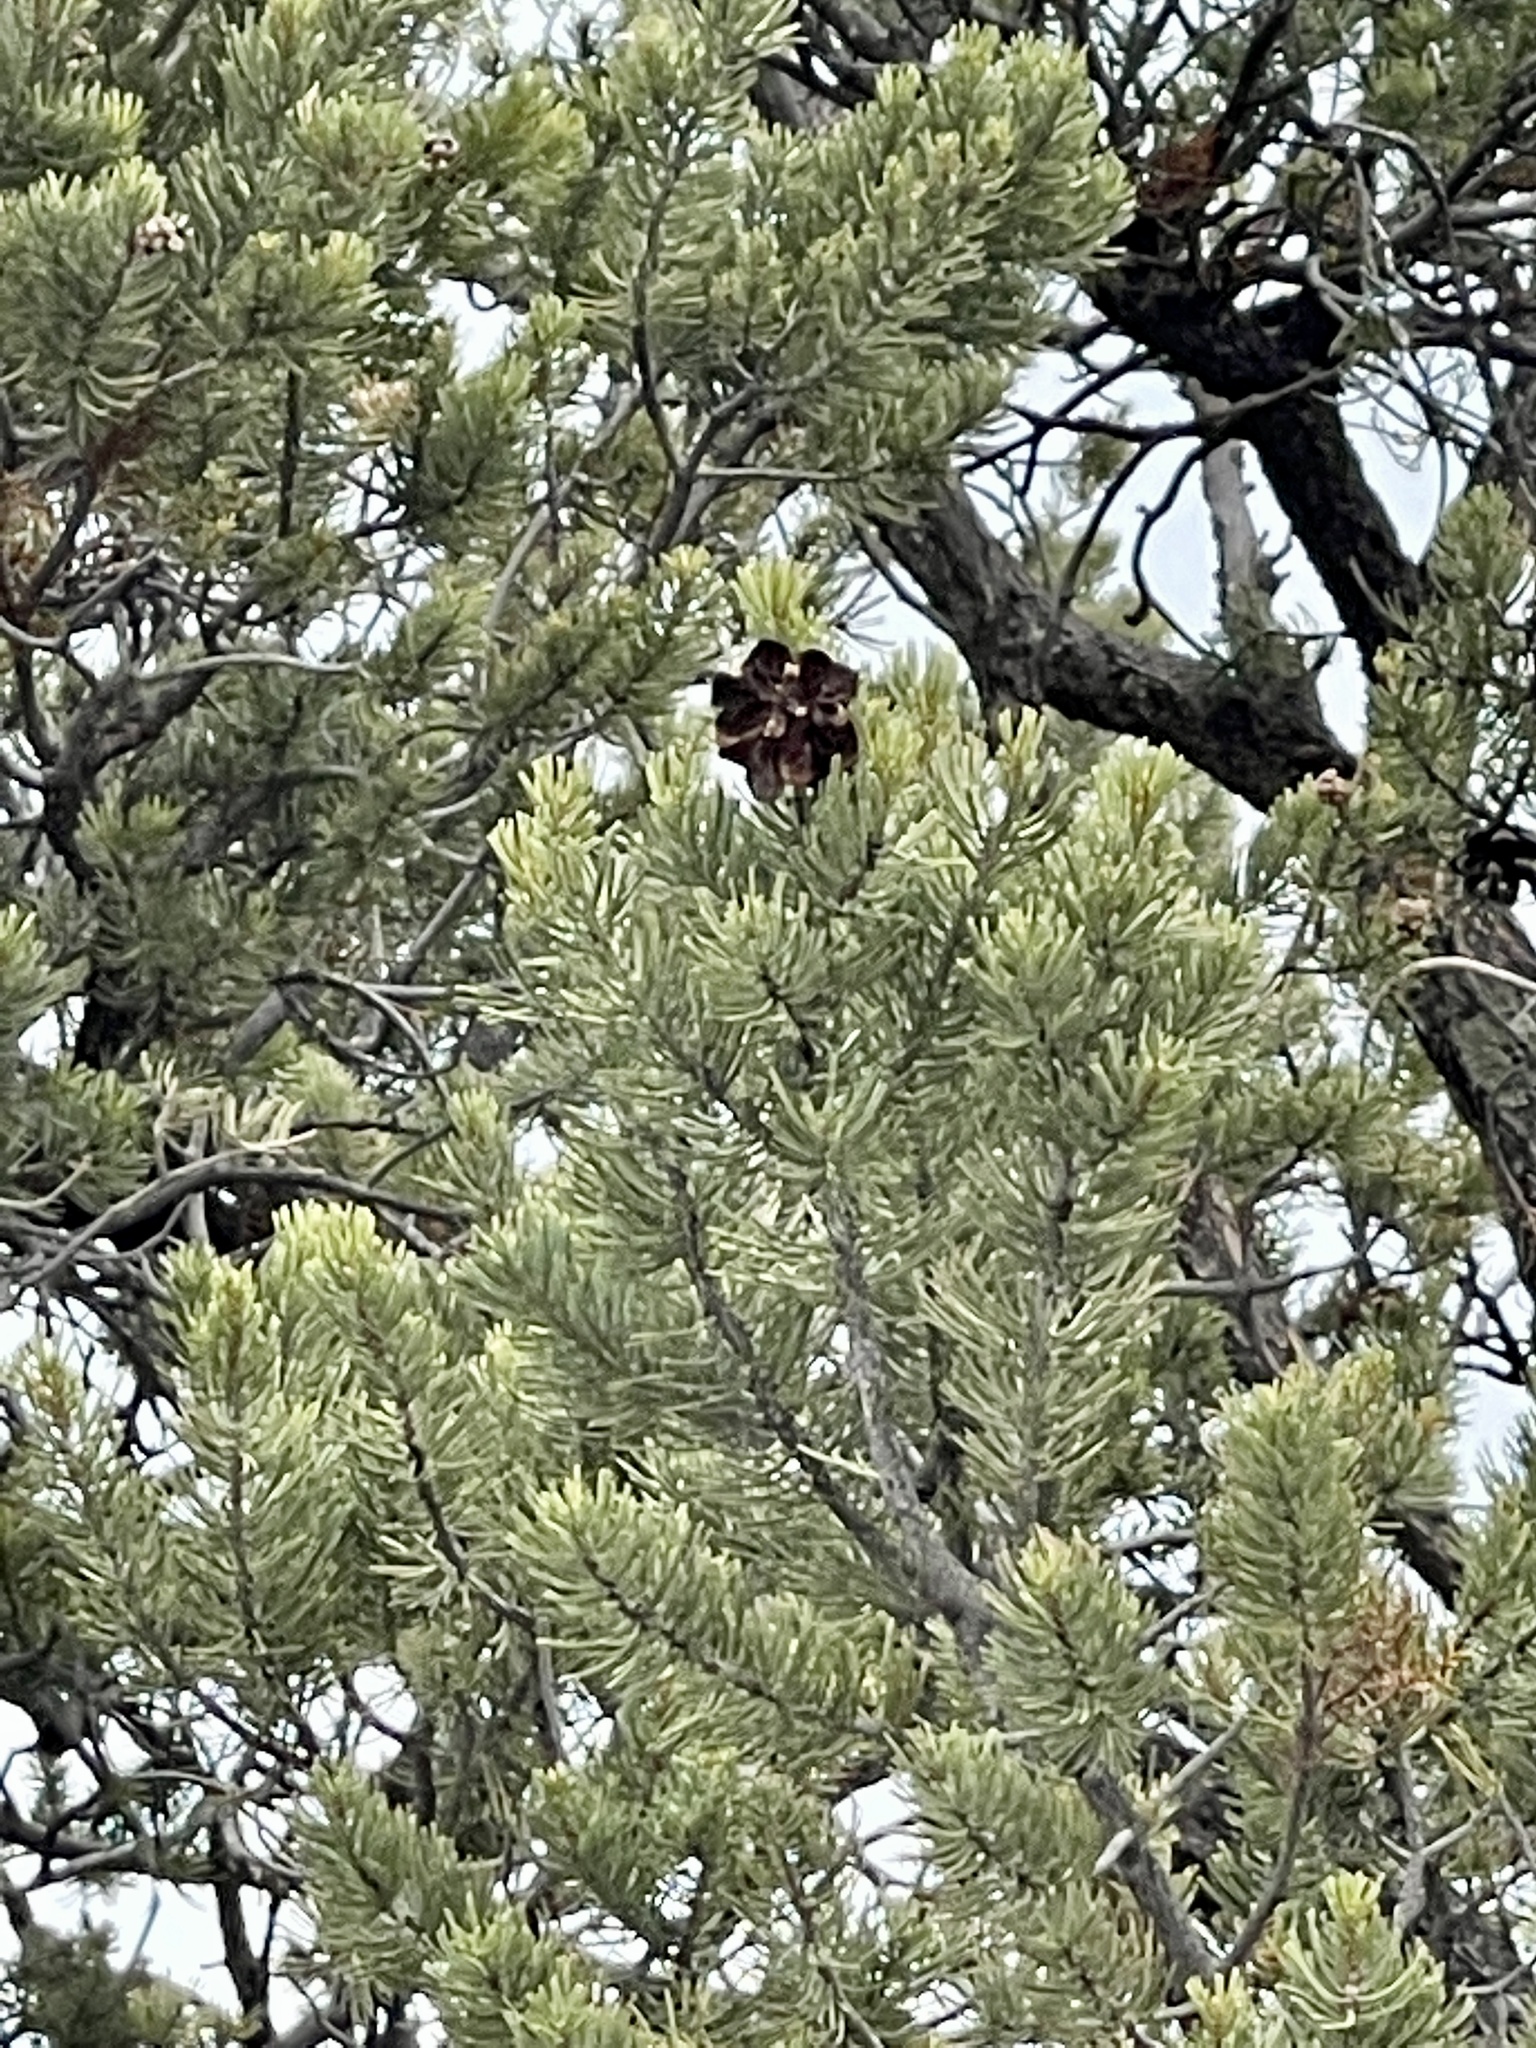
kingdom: Plantae
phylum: Tracheophyta
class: Pinopsida
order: Pinales
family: Pinaceae
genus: Pinus
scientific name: Pinus edulis
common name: Colorado pinyon
